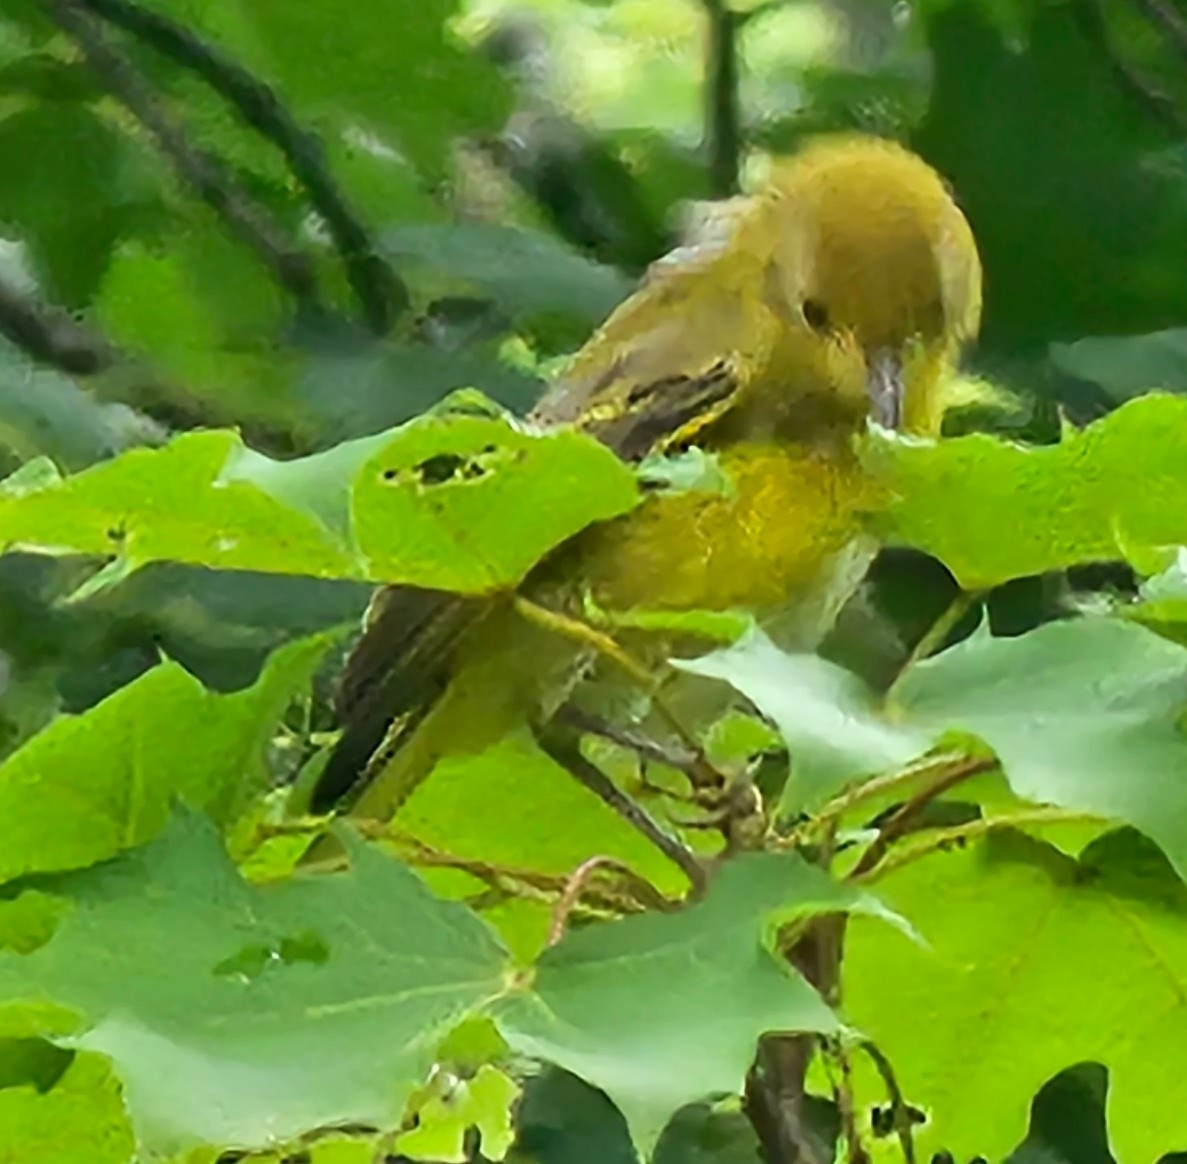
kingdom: Animalia
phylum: Chordata
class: Aves
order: Passeriformes
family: Parulidae
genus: Setophaga
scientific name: Setophaga petechia
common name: Yellow warbler
